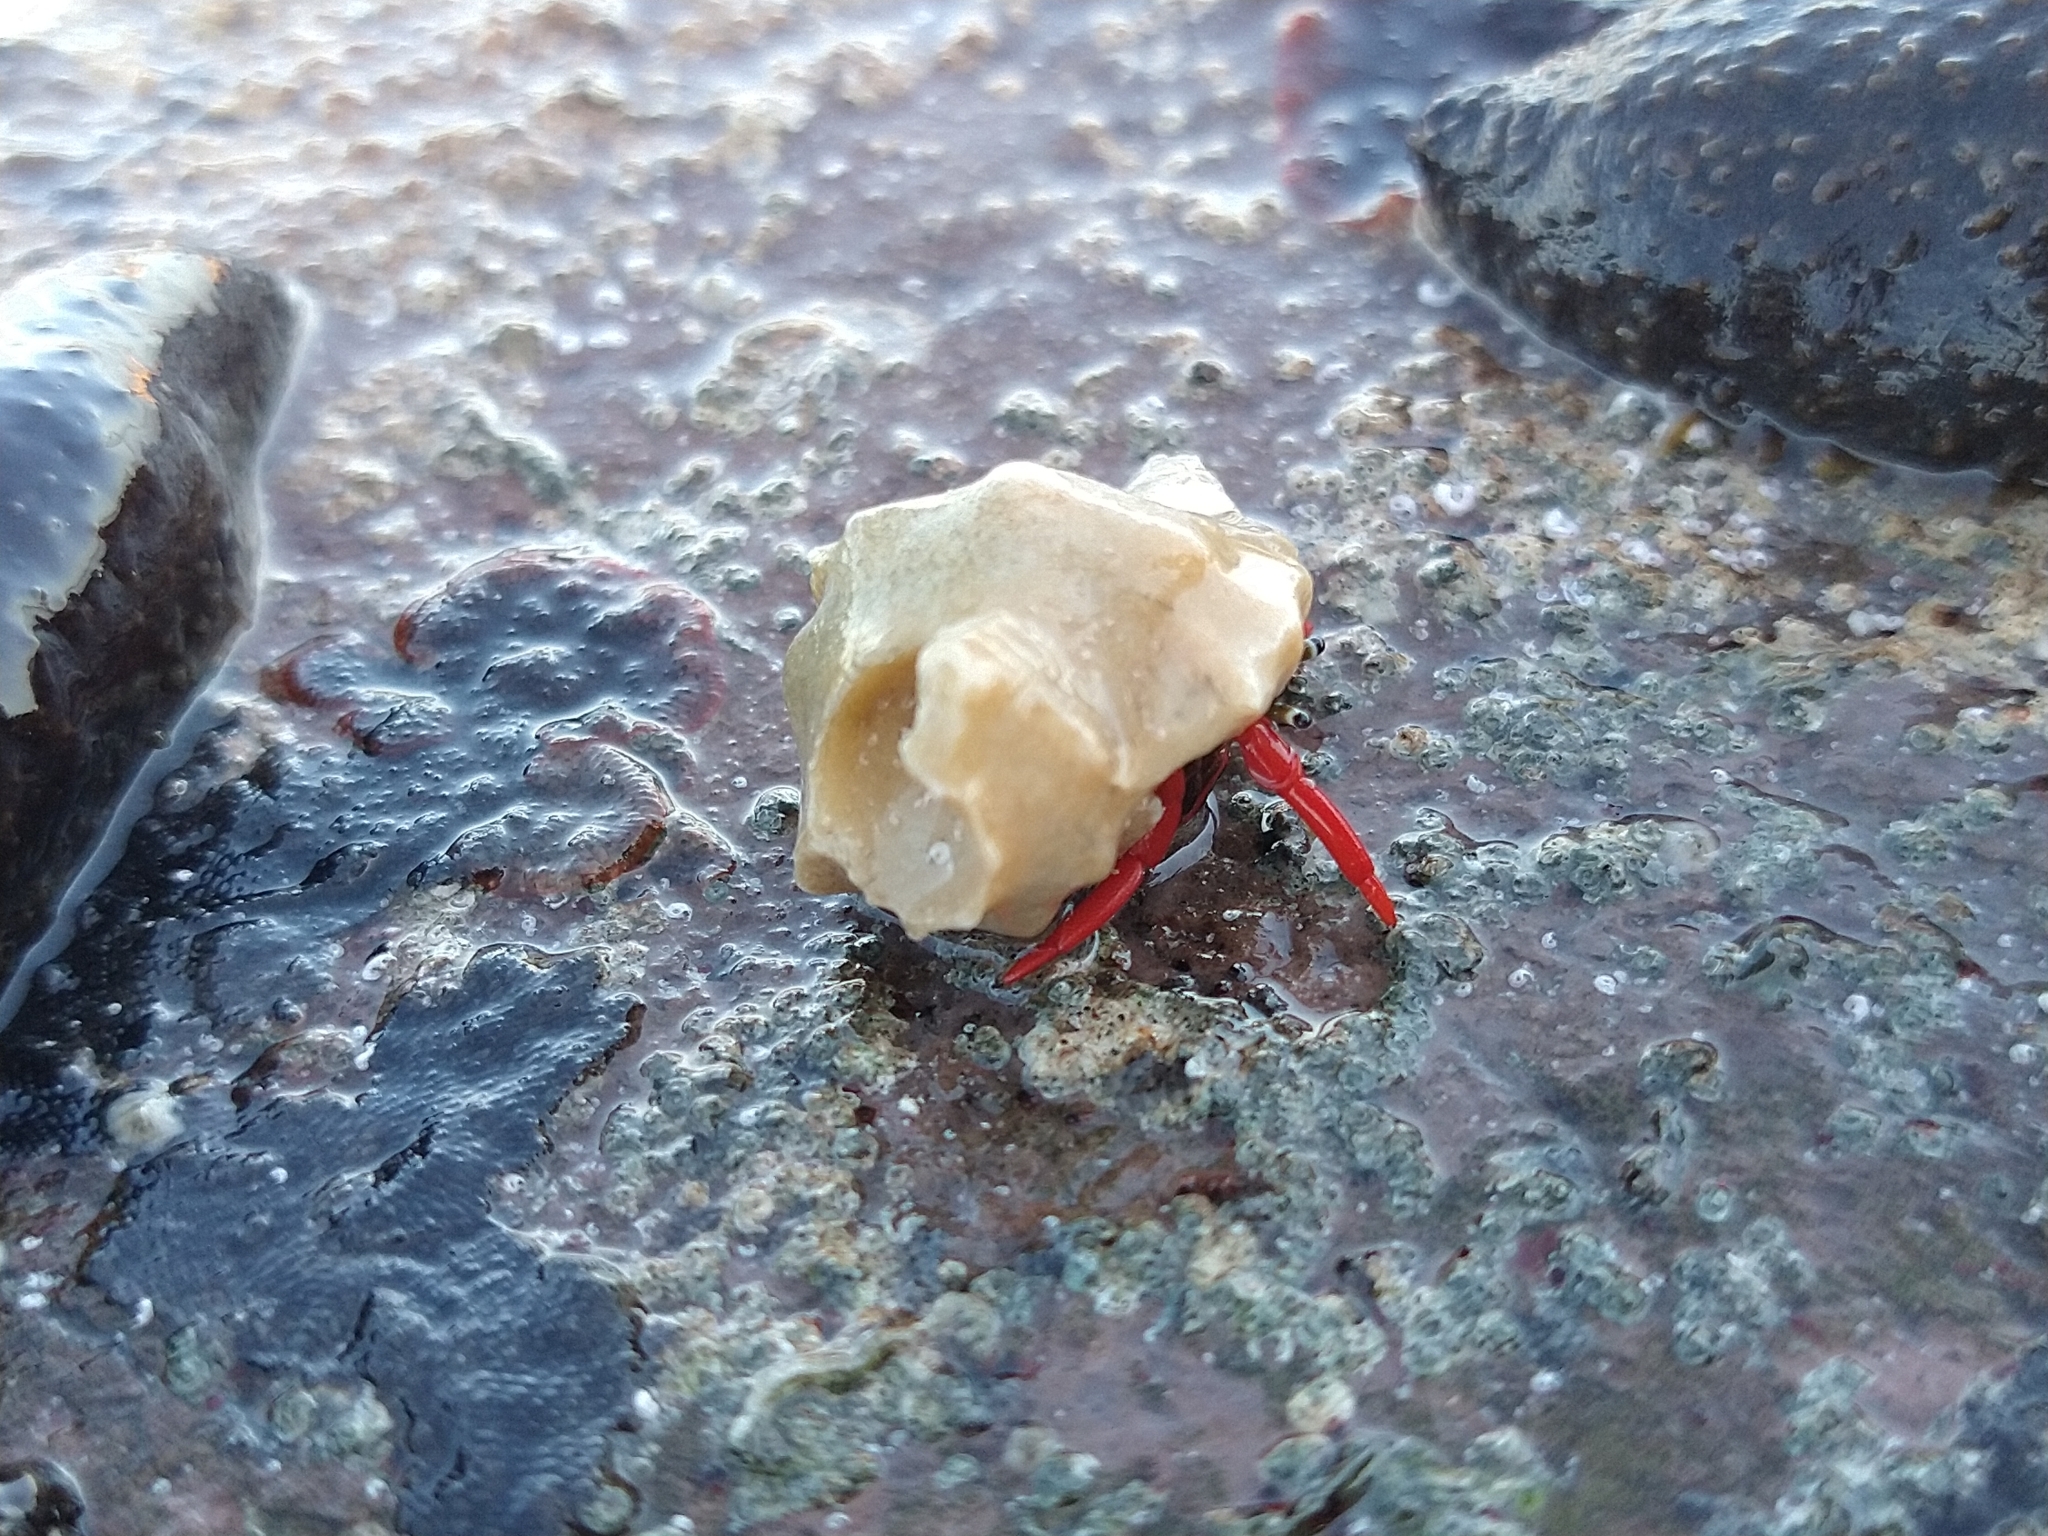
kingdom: Animalia
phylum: Arthropoda
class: Malacostraca
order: Decapoda
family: Diogenidae
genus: Calcinus
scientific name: Calcinus californiensis
